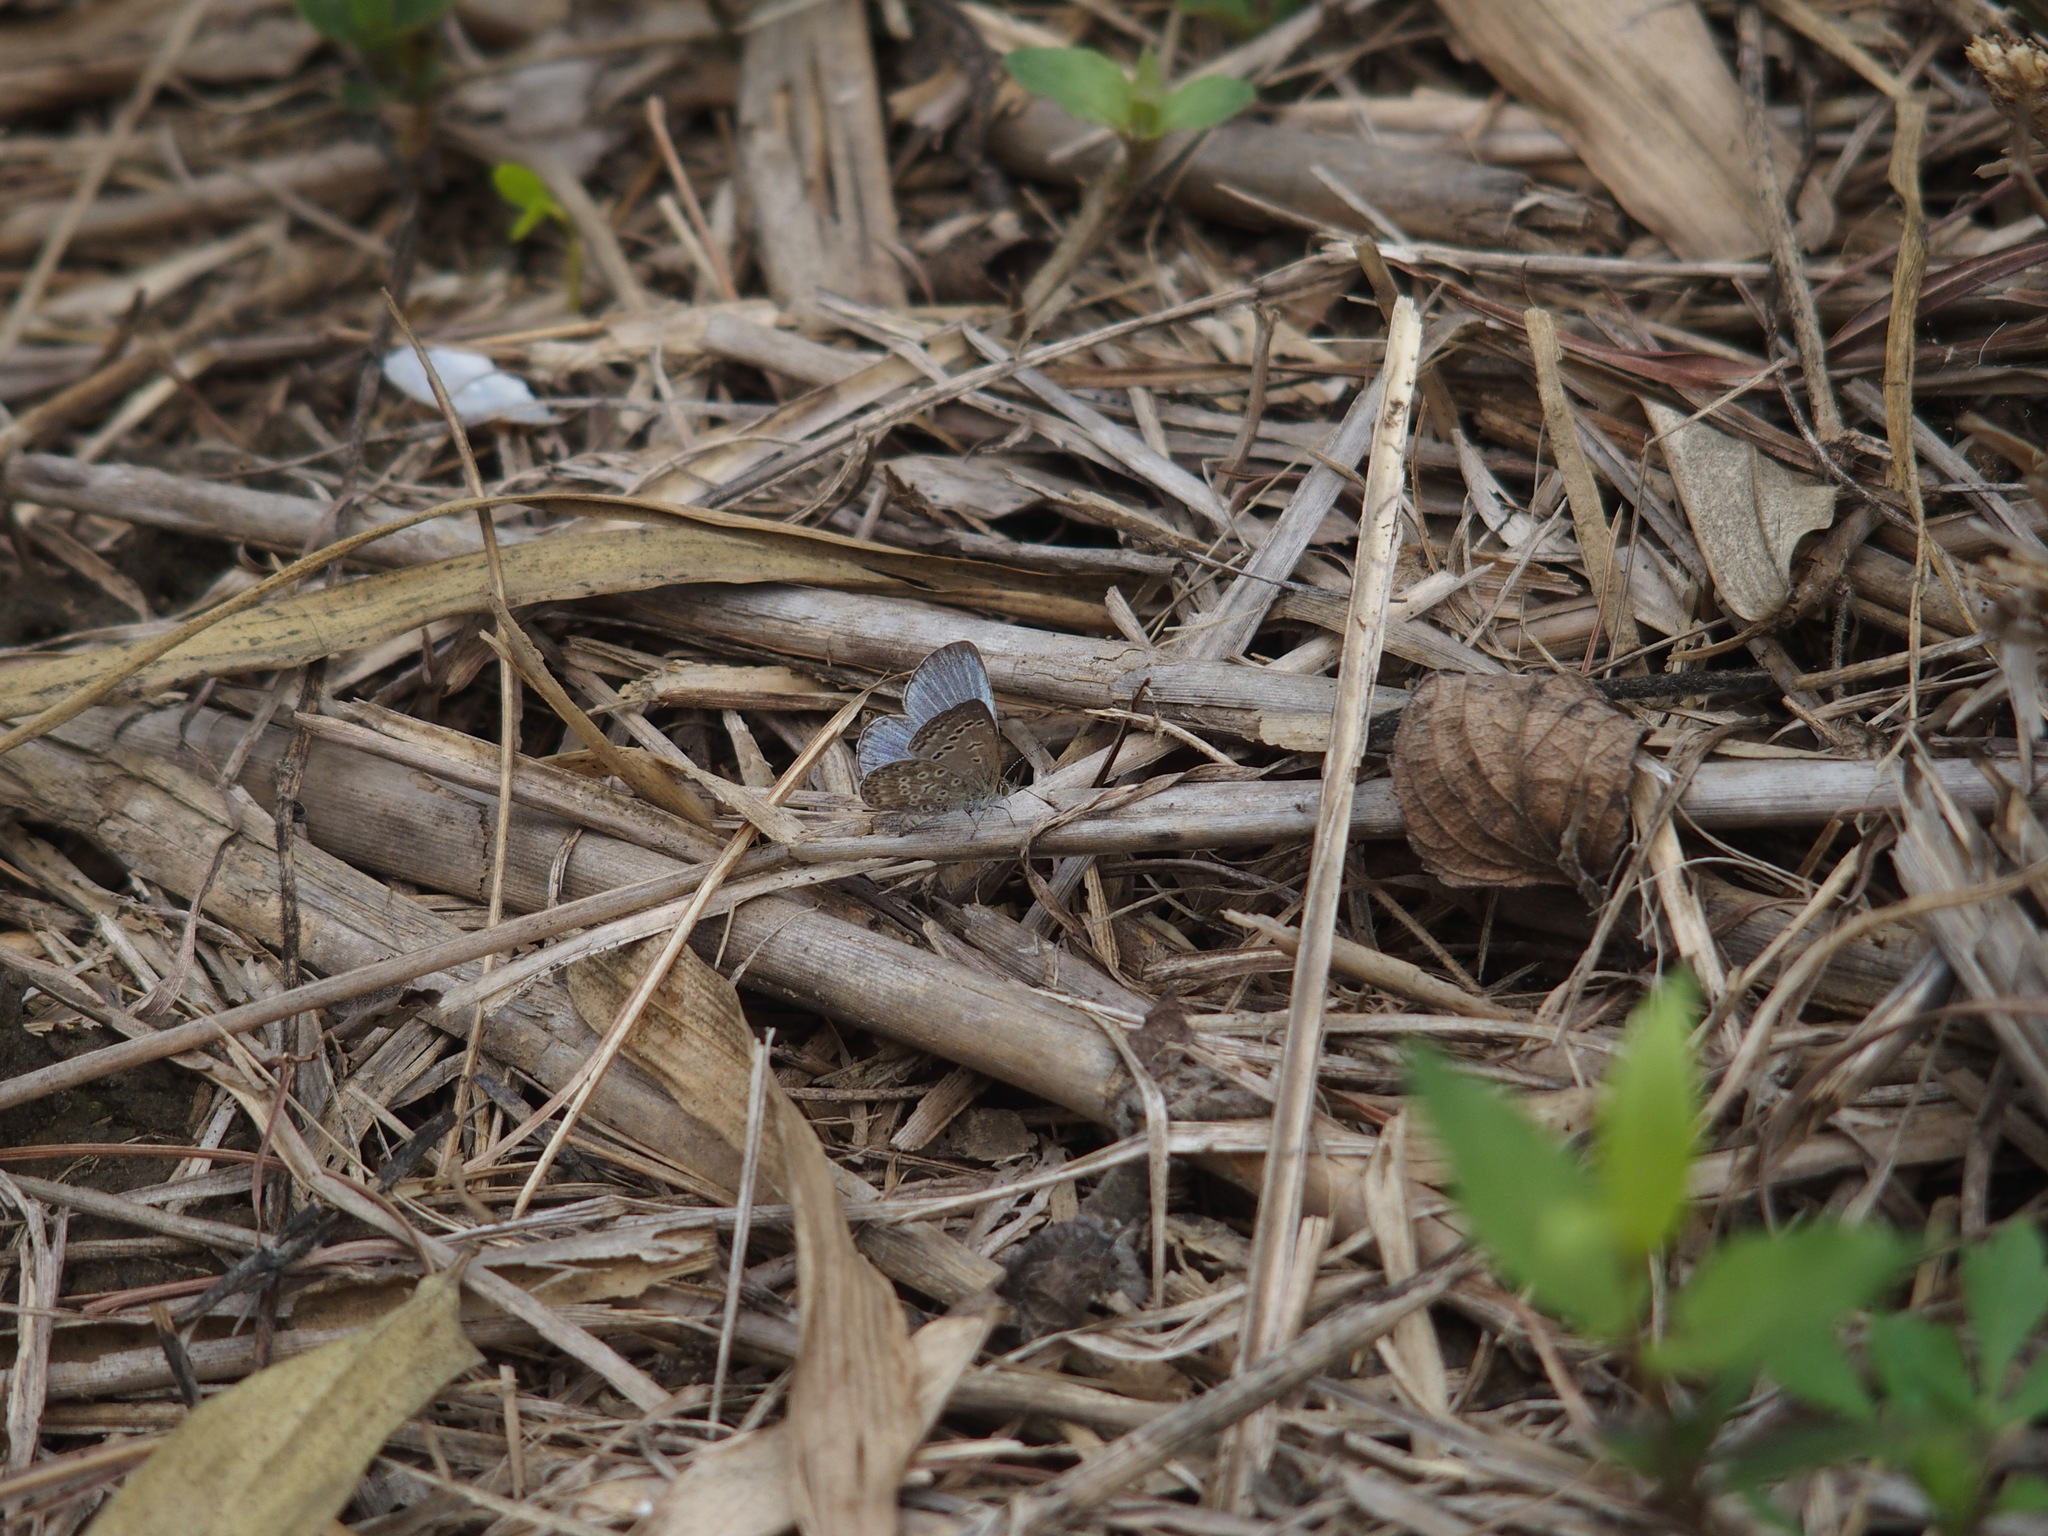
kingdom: Animalia
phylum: Arthropoda
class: Insecta
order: Lepidoptera
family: Lycaenidae
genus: Pseudozizeeria
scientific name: Pseudozizeeria maha
